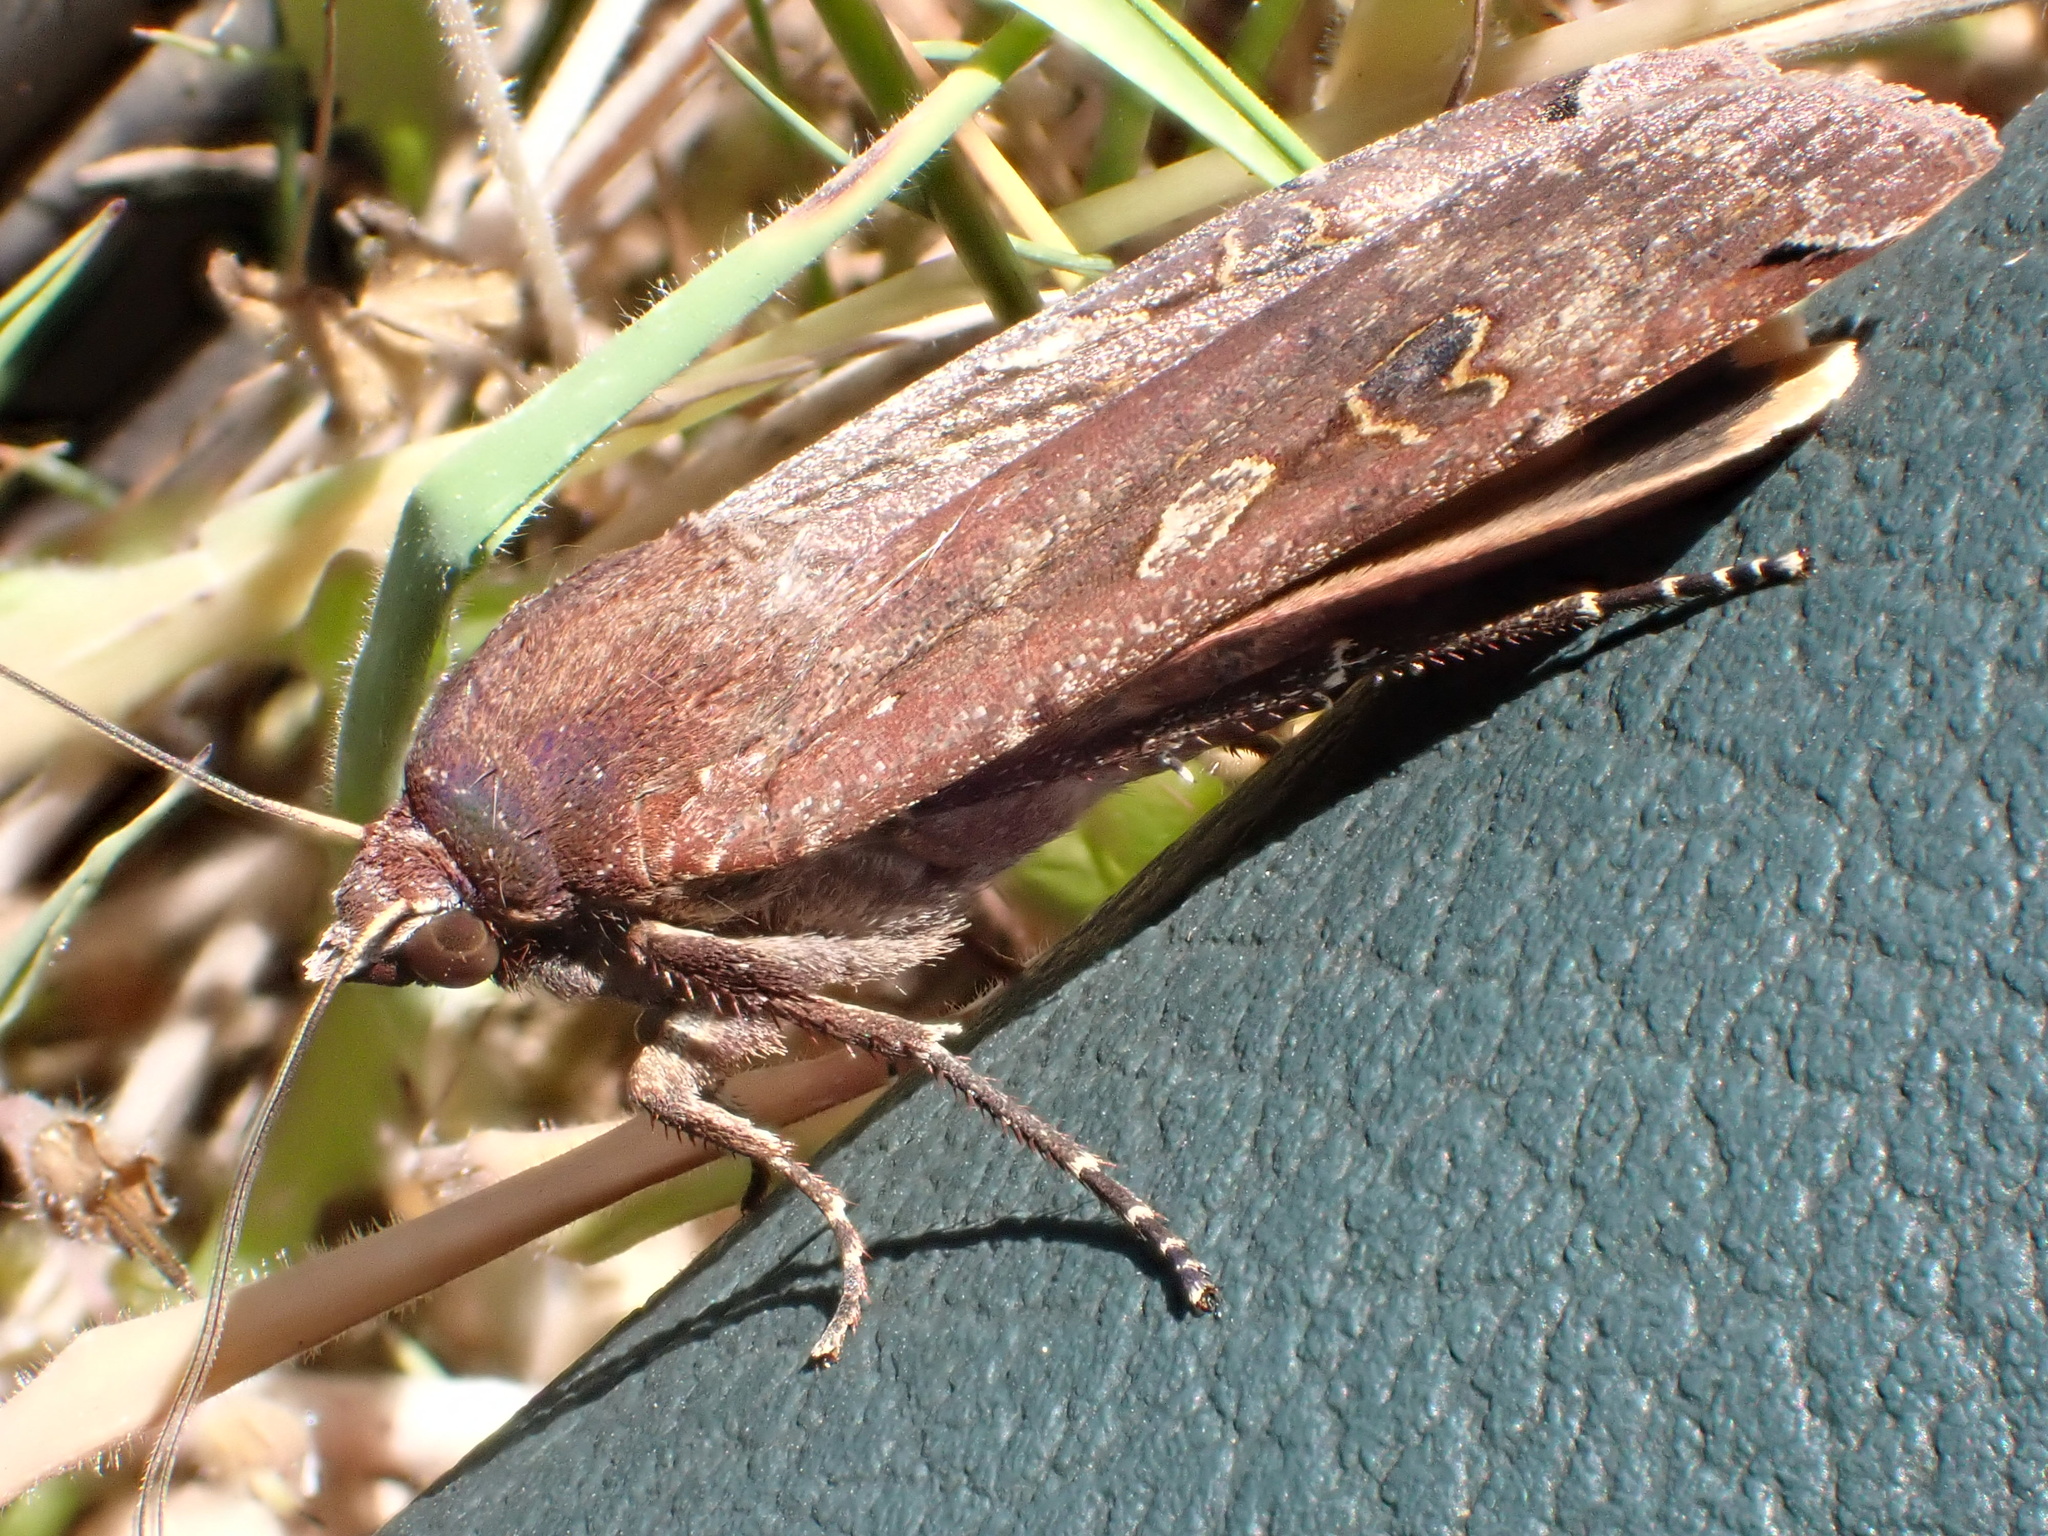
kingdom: Animalia
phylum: Arthropoda
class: Insecta
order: Lepidoptera
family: Noctuidae
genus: Noctua
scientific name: Noctua pronuba
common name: Large yellow underwing
